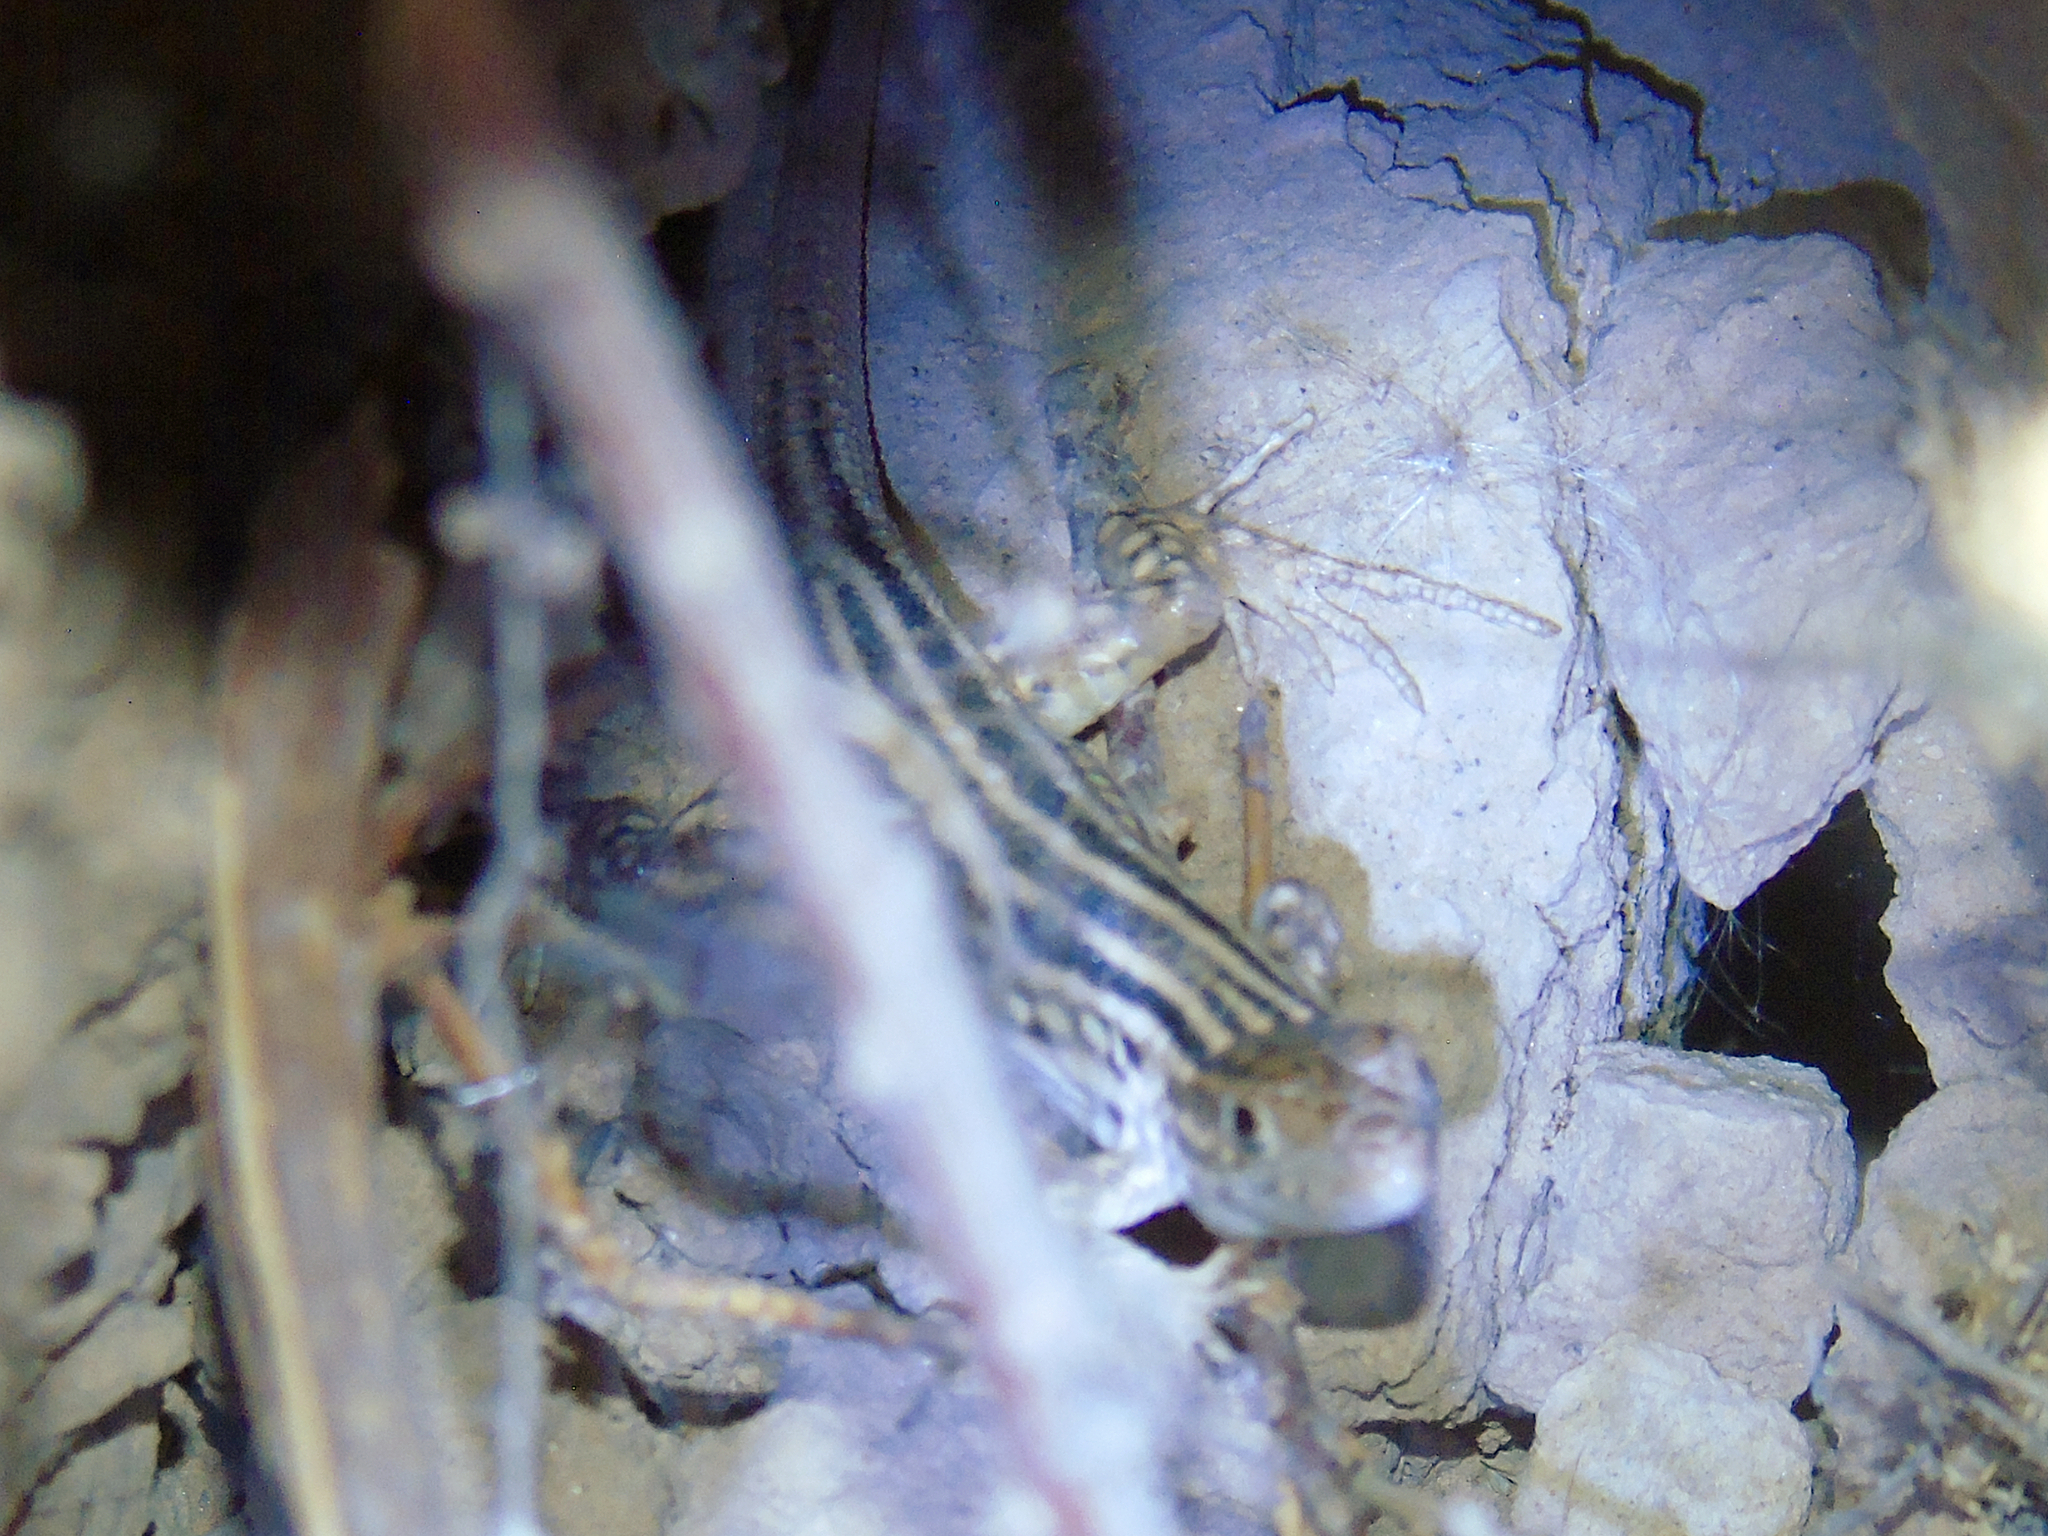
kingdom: Animalia
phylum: Chordata
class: Squamata
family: Lacertidae
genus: Eremias
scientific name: Eremias regeli
